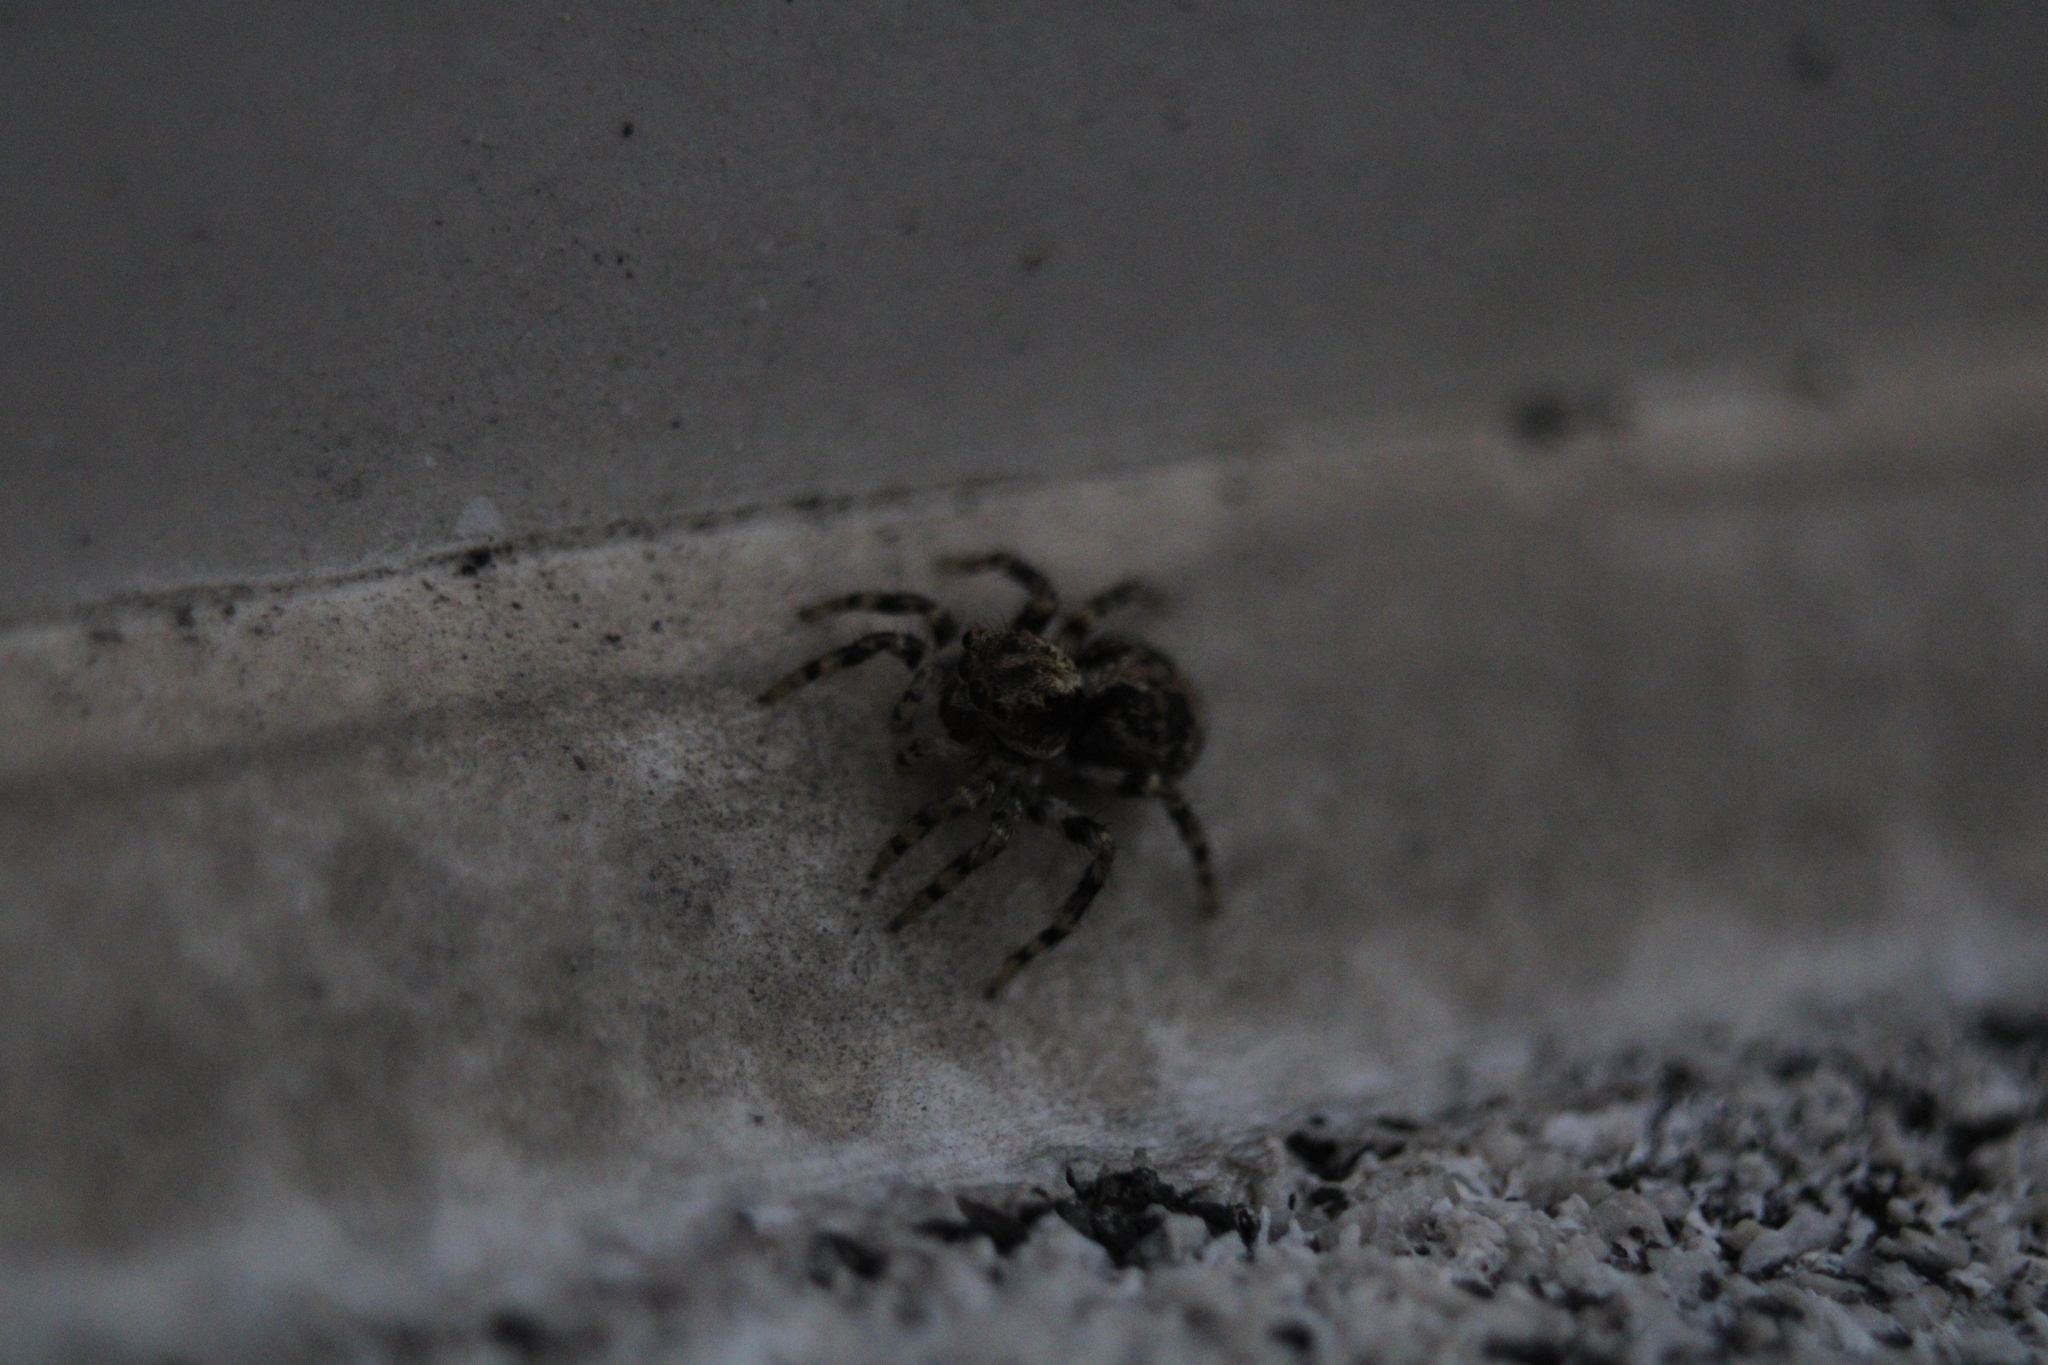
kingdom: Animalia
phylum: Arthropoda
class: Arachnida
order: Araneae
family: Salticidae
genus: Naphrys
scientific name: Naphrys pulex
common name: Flea jumping spider
